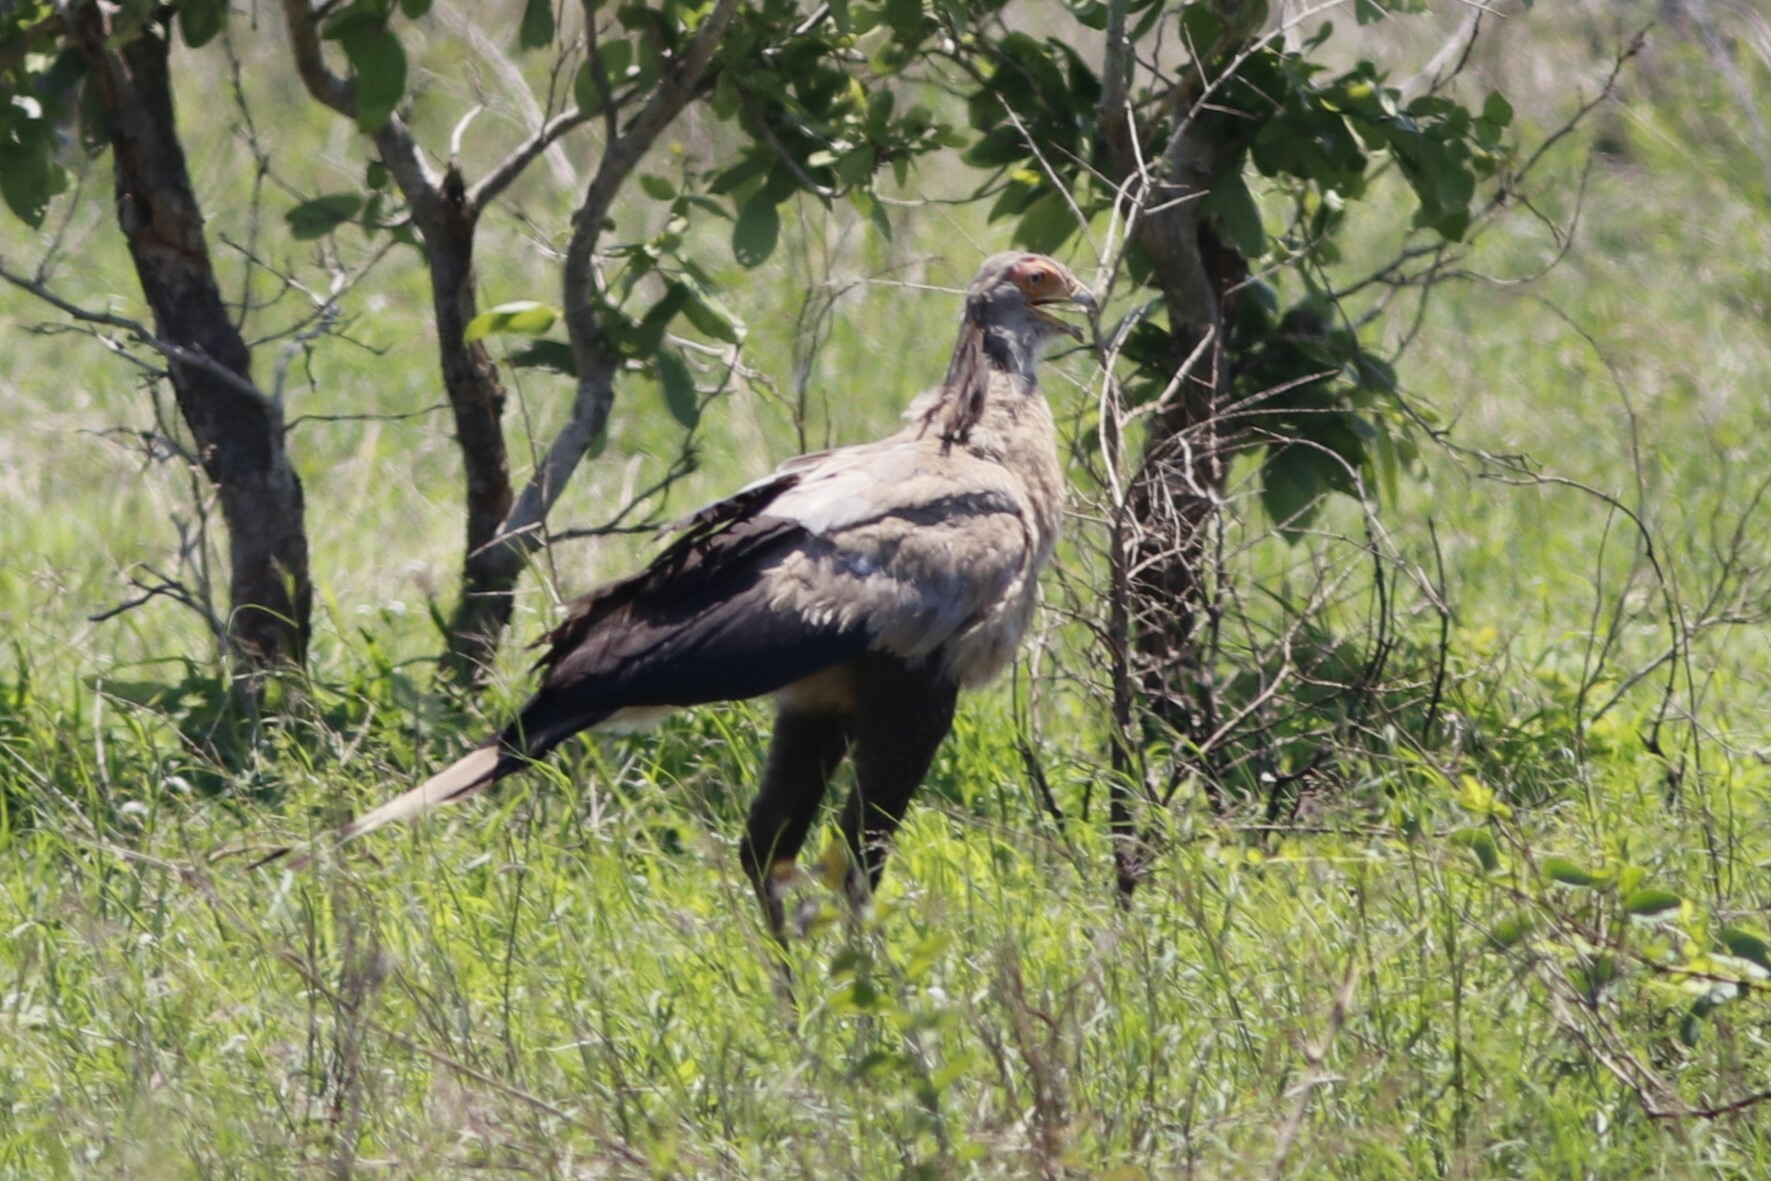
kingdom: Animalia
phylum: Chordata
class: Aves
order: Accipitriformes
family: Sagittariidae
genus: Sagittarius
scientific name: Sagittarius serpentarius
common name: Secretarybird
